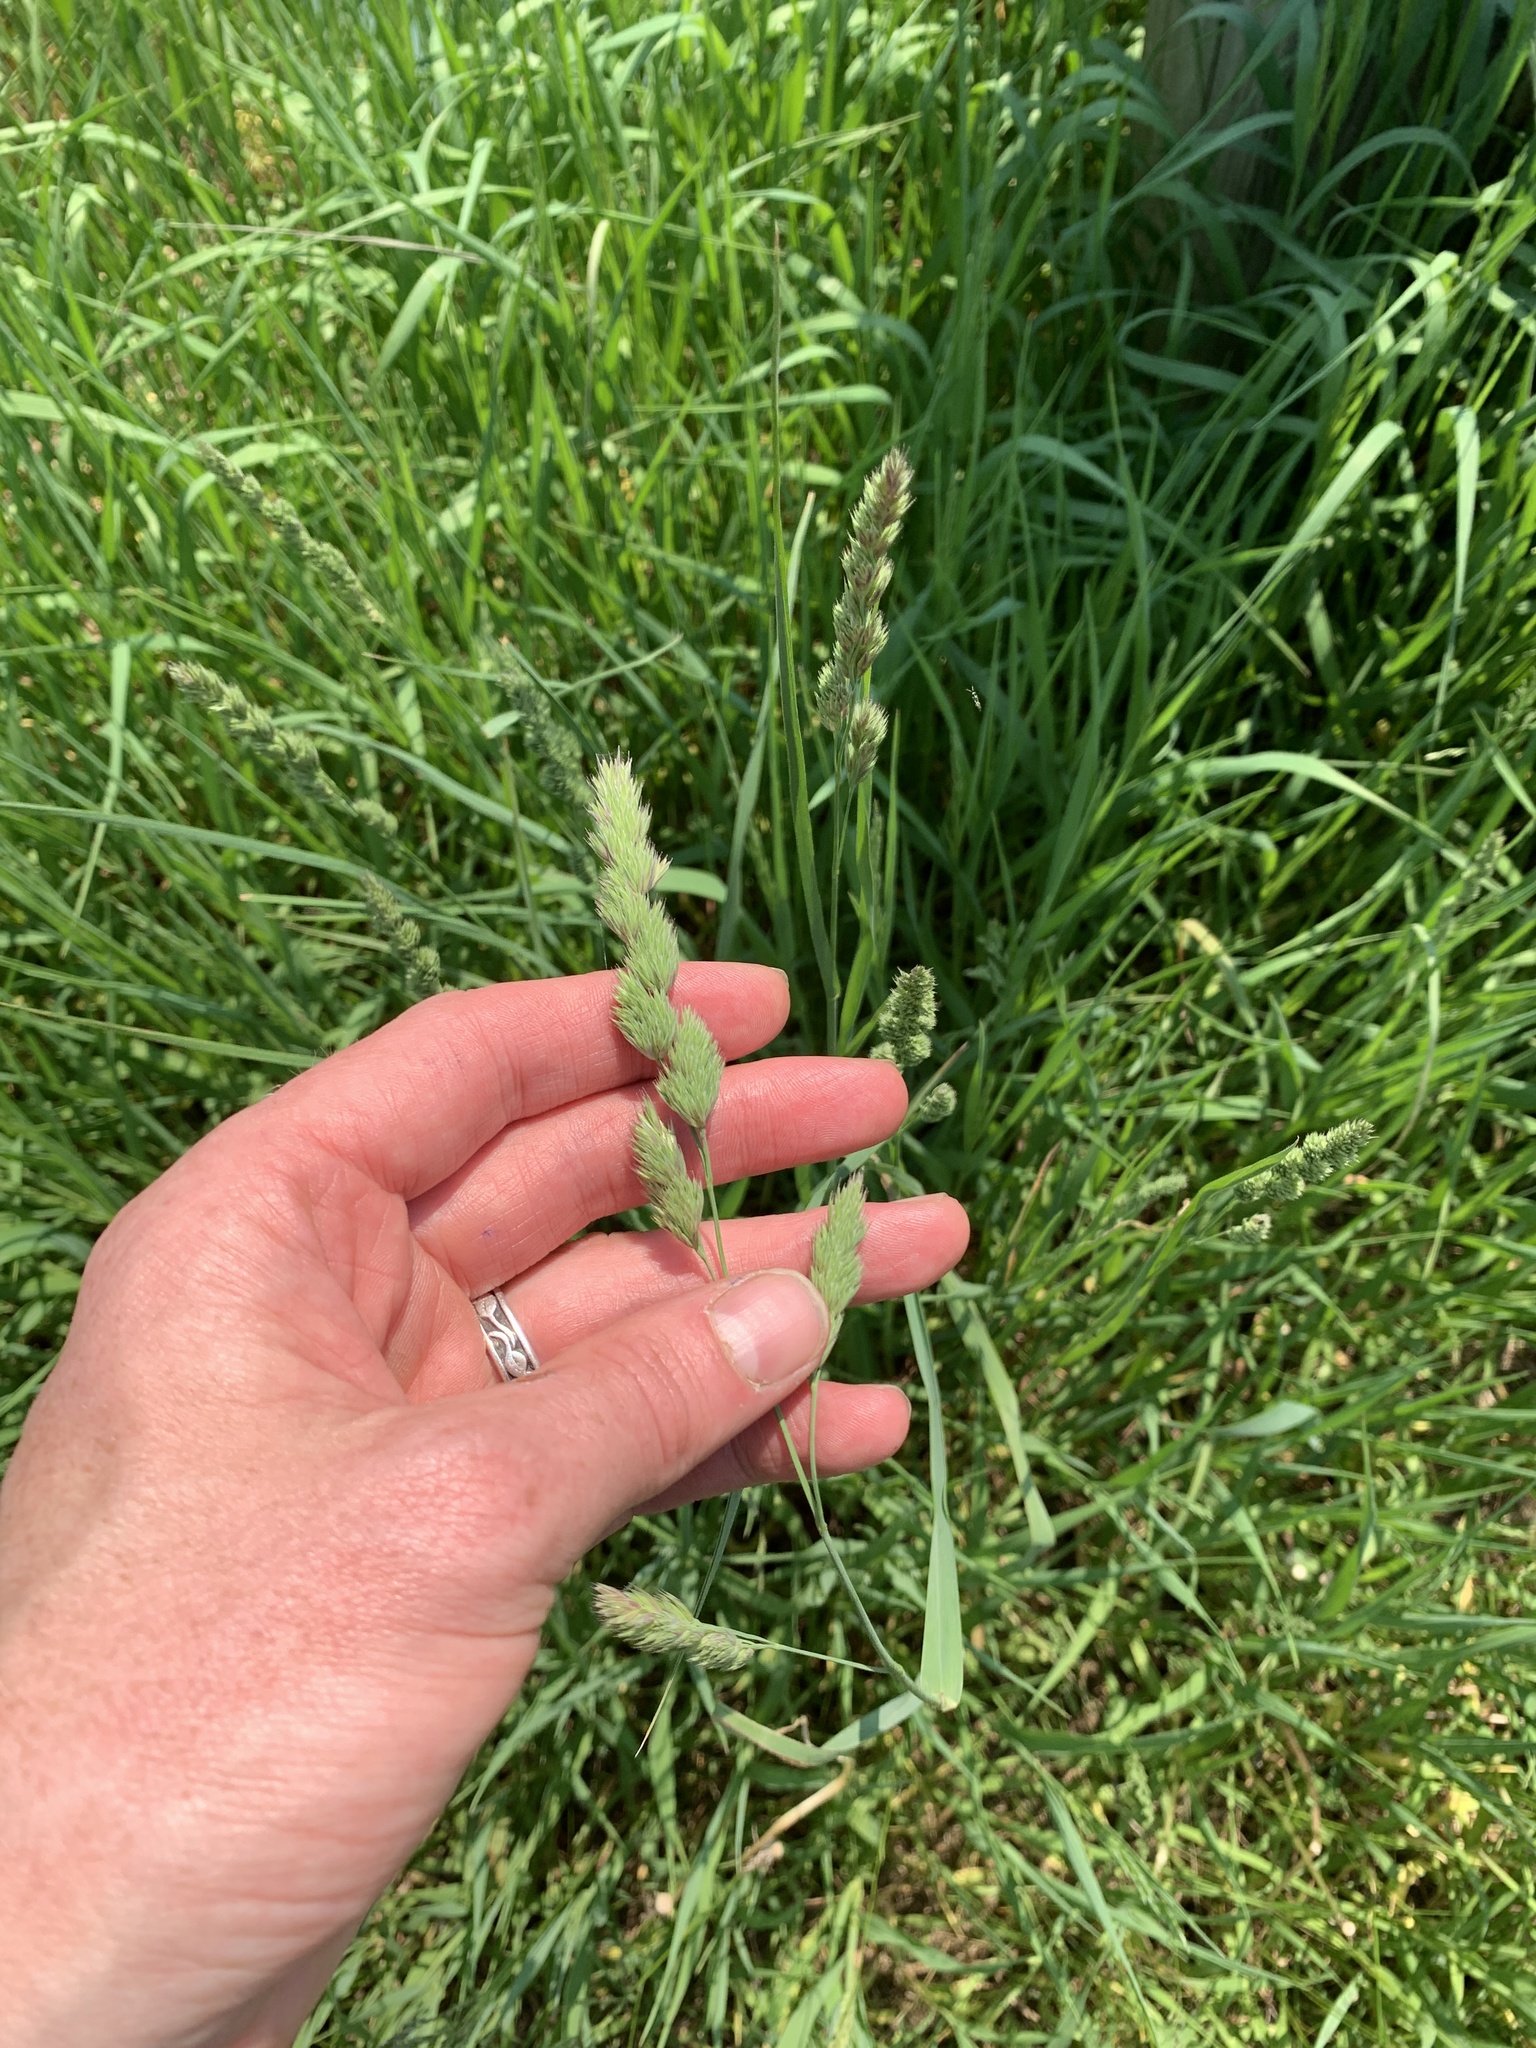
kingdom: Plantae
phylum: Tracheophyta
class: Liliopsida
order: Poales
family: Poaceae
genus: Dactylis
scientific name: Dactylis glomerata
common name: Orchardgrass
